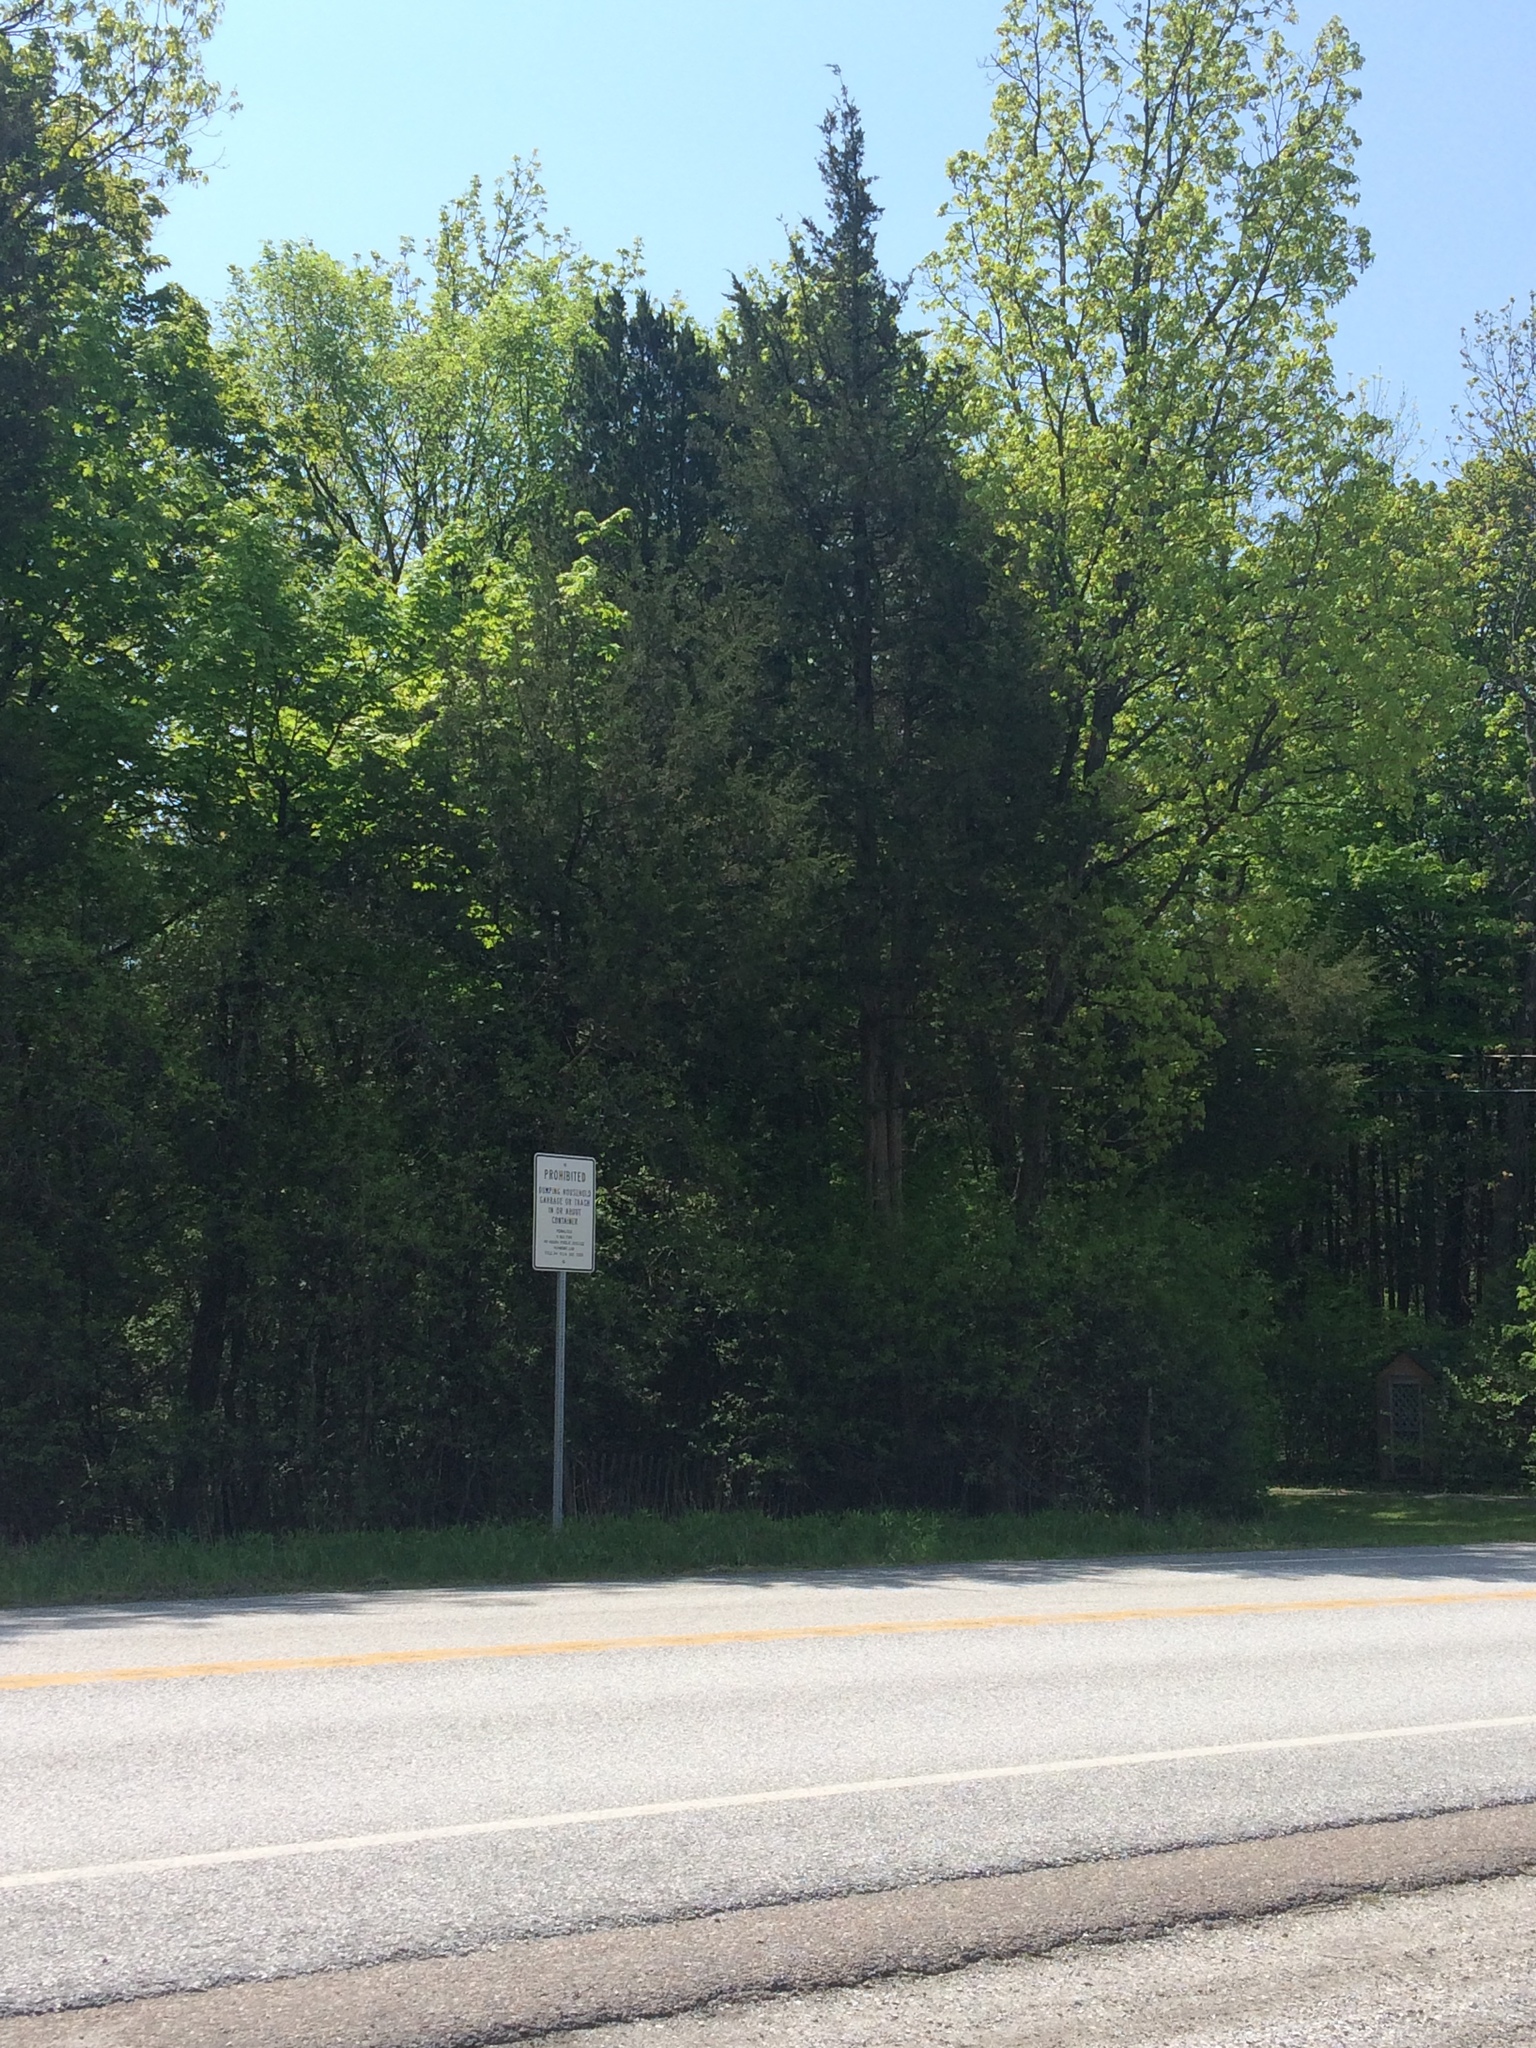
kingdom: Plantae
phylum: Tracheophyta
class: Pinopsida
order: Pinales
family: Cupressaceae
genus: Juniperus
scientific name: Juniperus virginiana
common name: Red juniper
